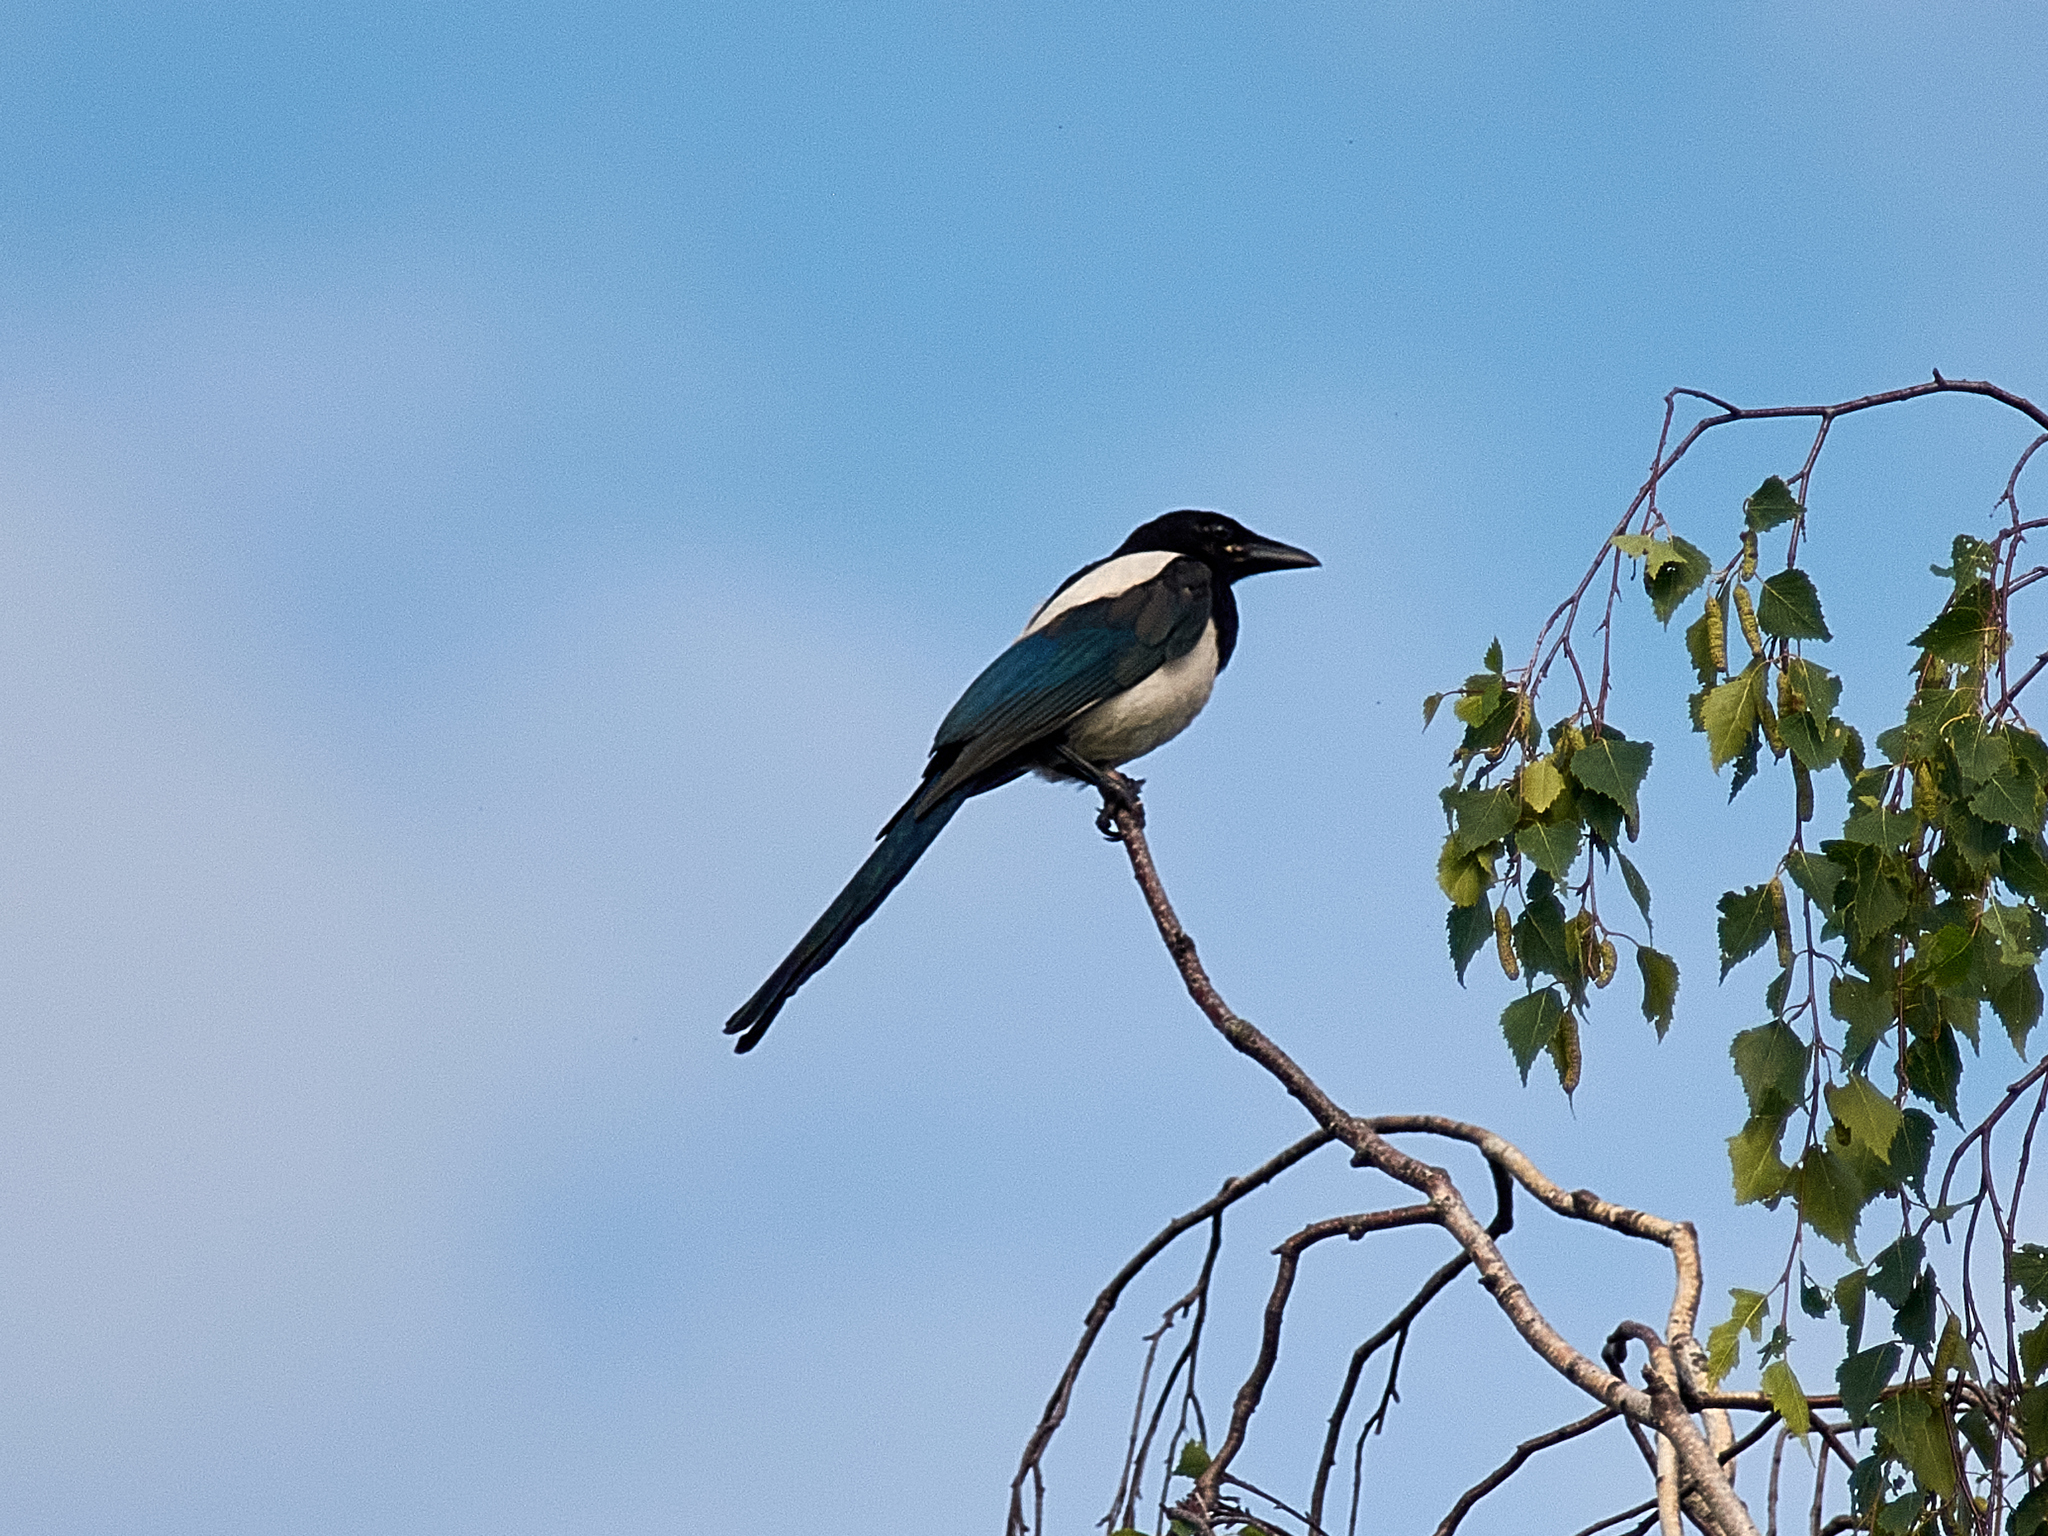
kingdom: Animalia
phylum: Chordata
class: Aves
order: Passeriformes
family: Corvidae
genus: Pica
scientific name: Pica pica
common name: Eurasian magpie
